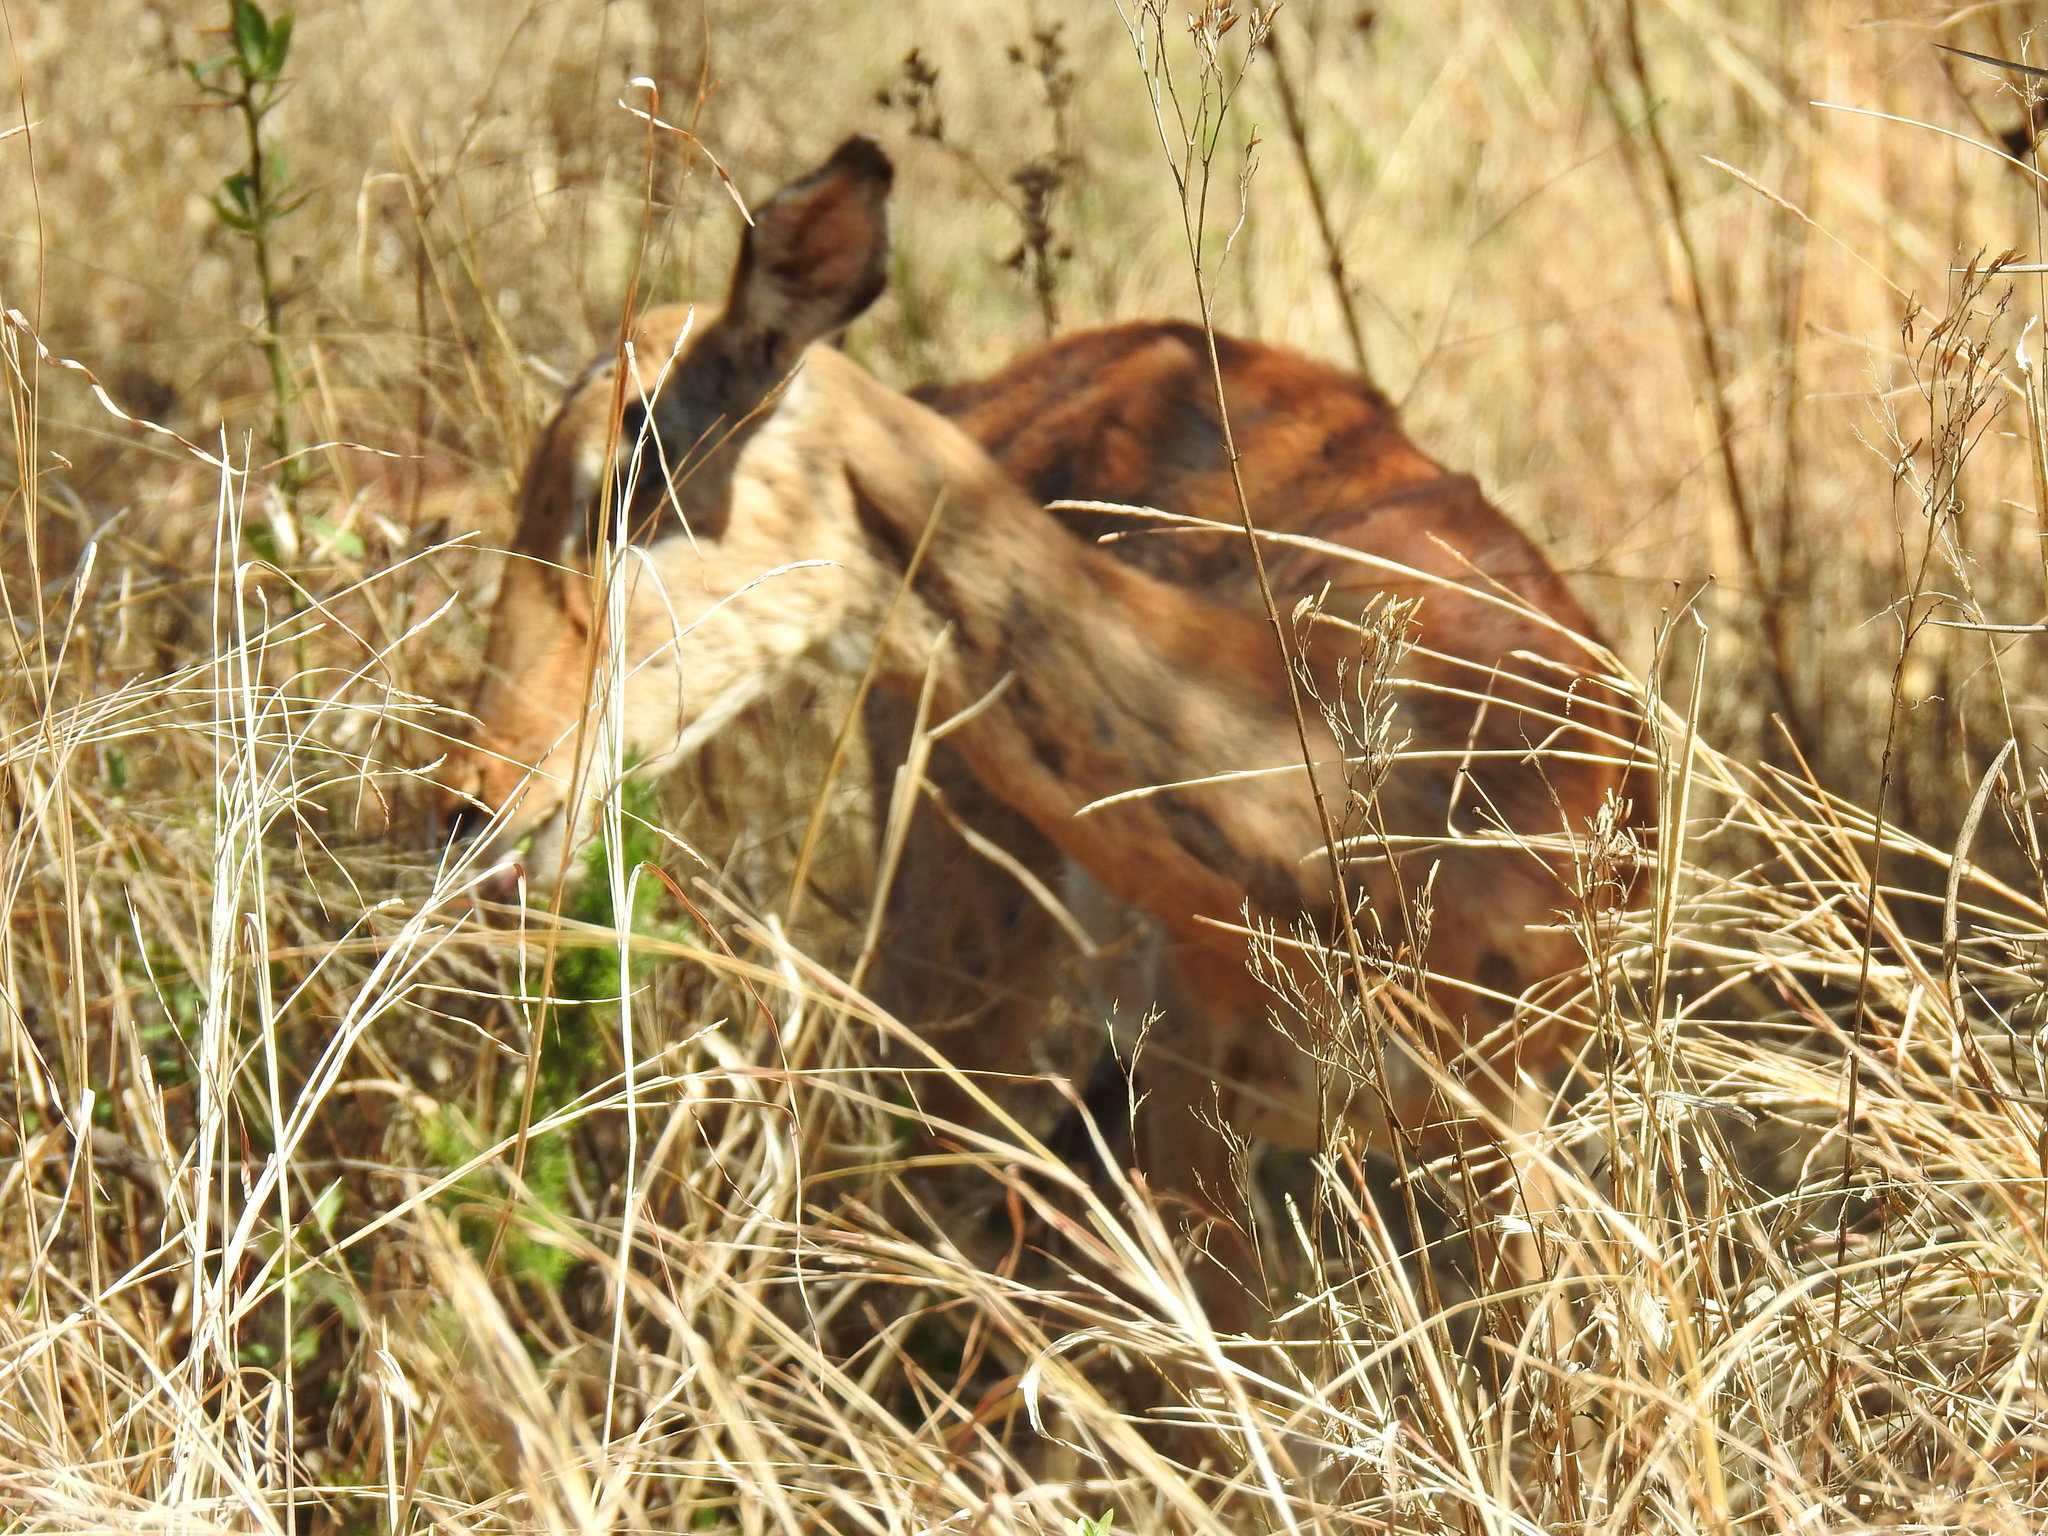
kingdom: Animalia
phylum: Chordata
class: Mammalia
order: Artiodactyla
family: Bovidae
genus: Aepyceros
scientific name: Aepyceros melampus
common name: Impala
